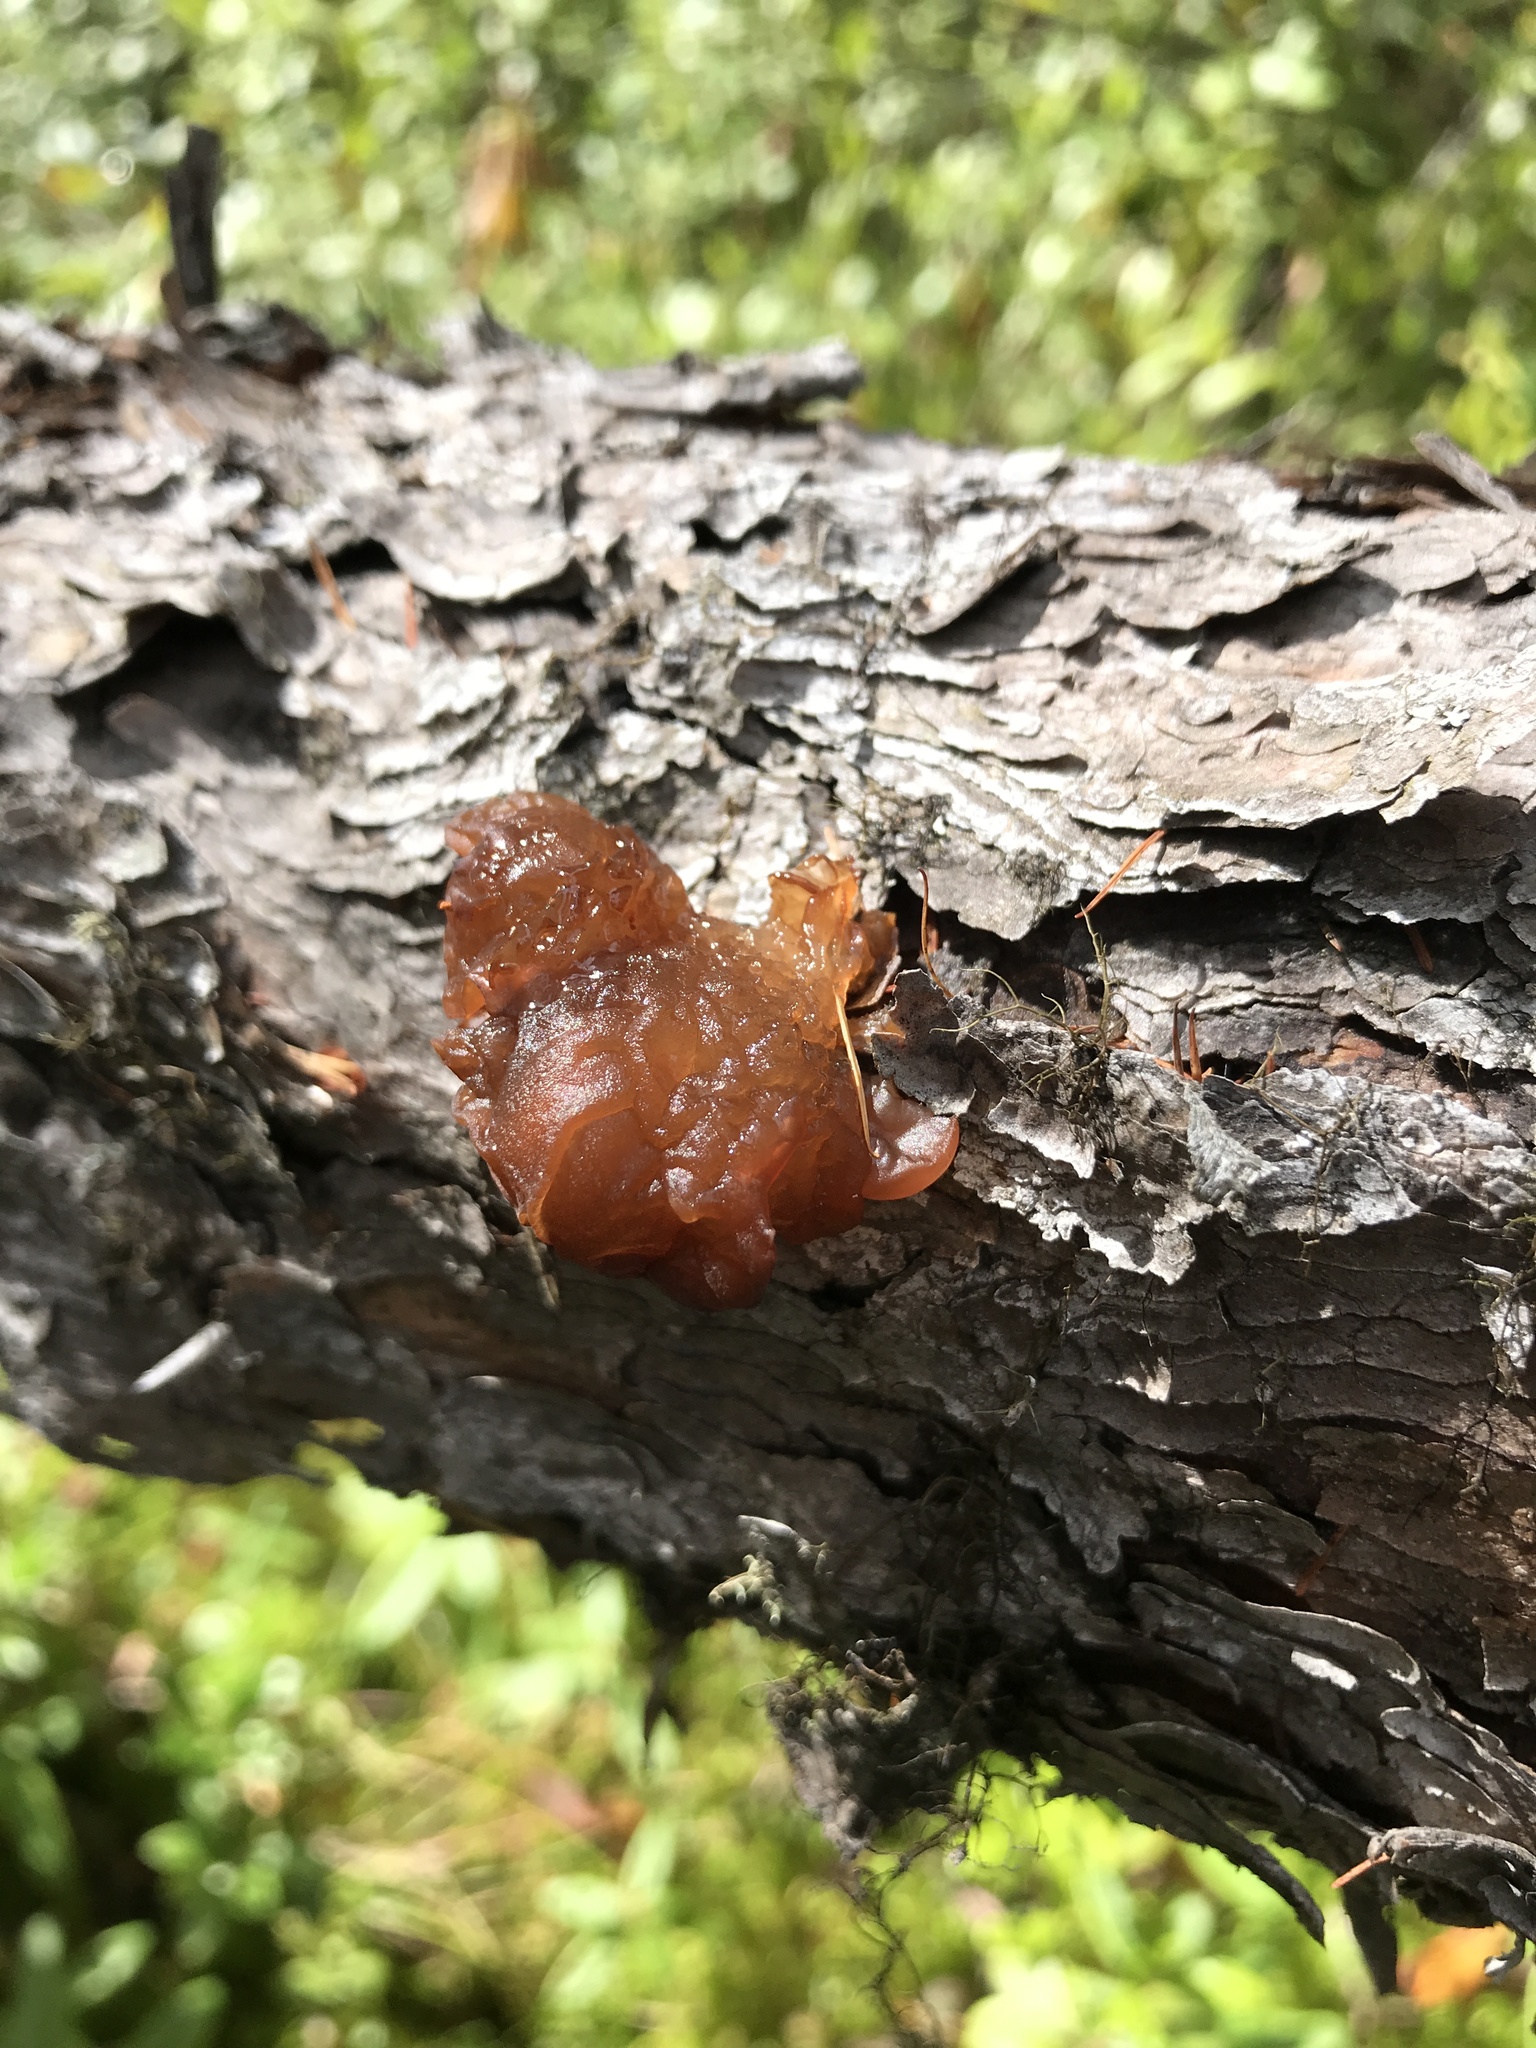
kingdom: Fungi
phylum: Basidiomycota
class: Tremellomycetes
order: Tremellales
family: Tremellaceae
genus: Phaeotremella
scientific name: Phaeotremella foliacea
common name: Leafy brain
